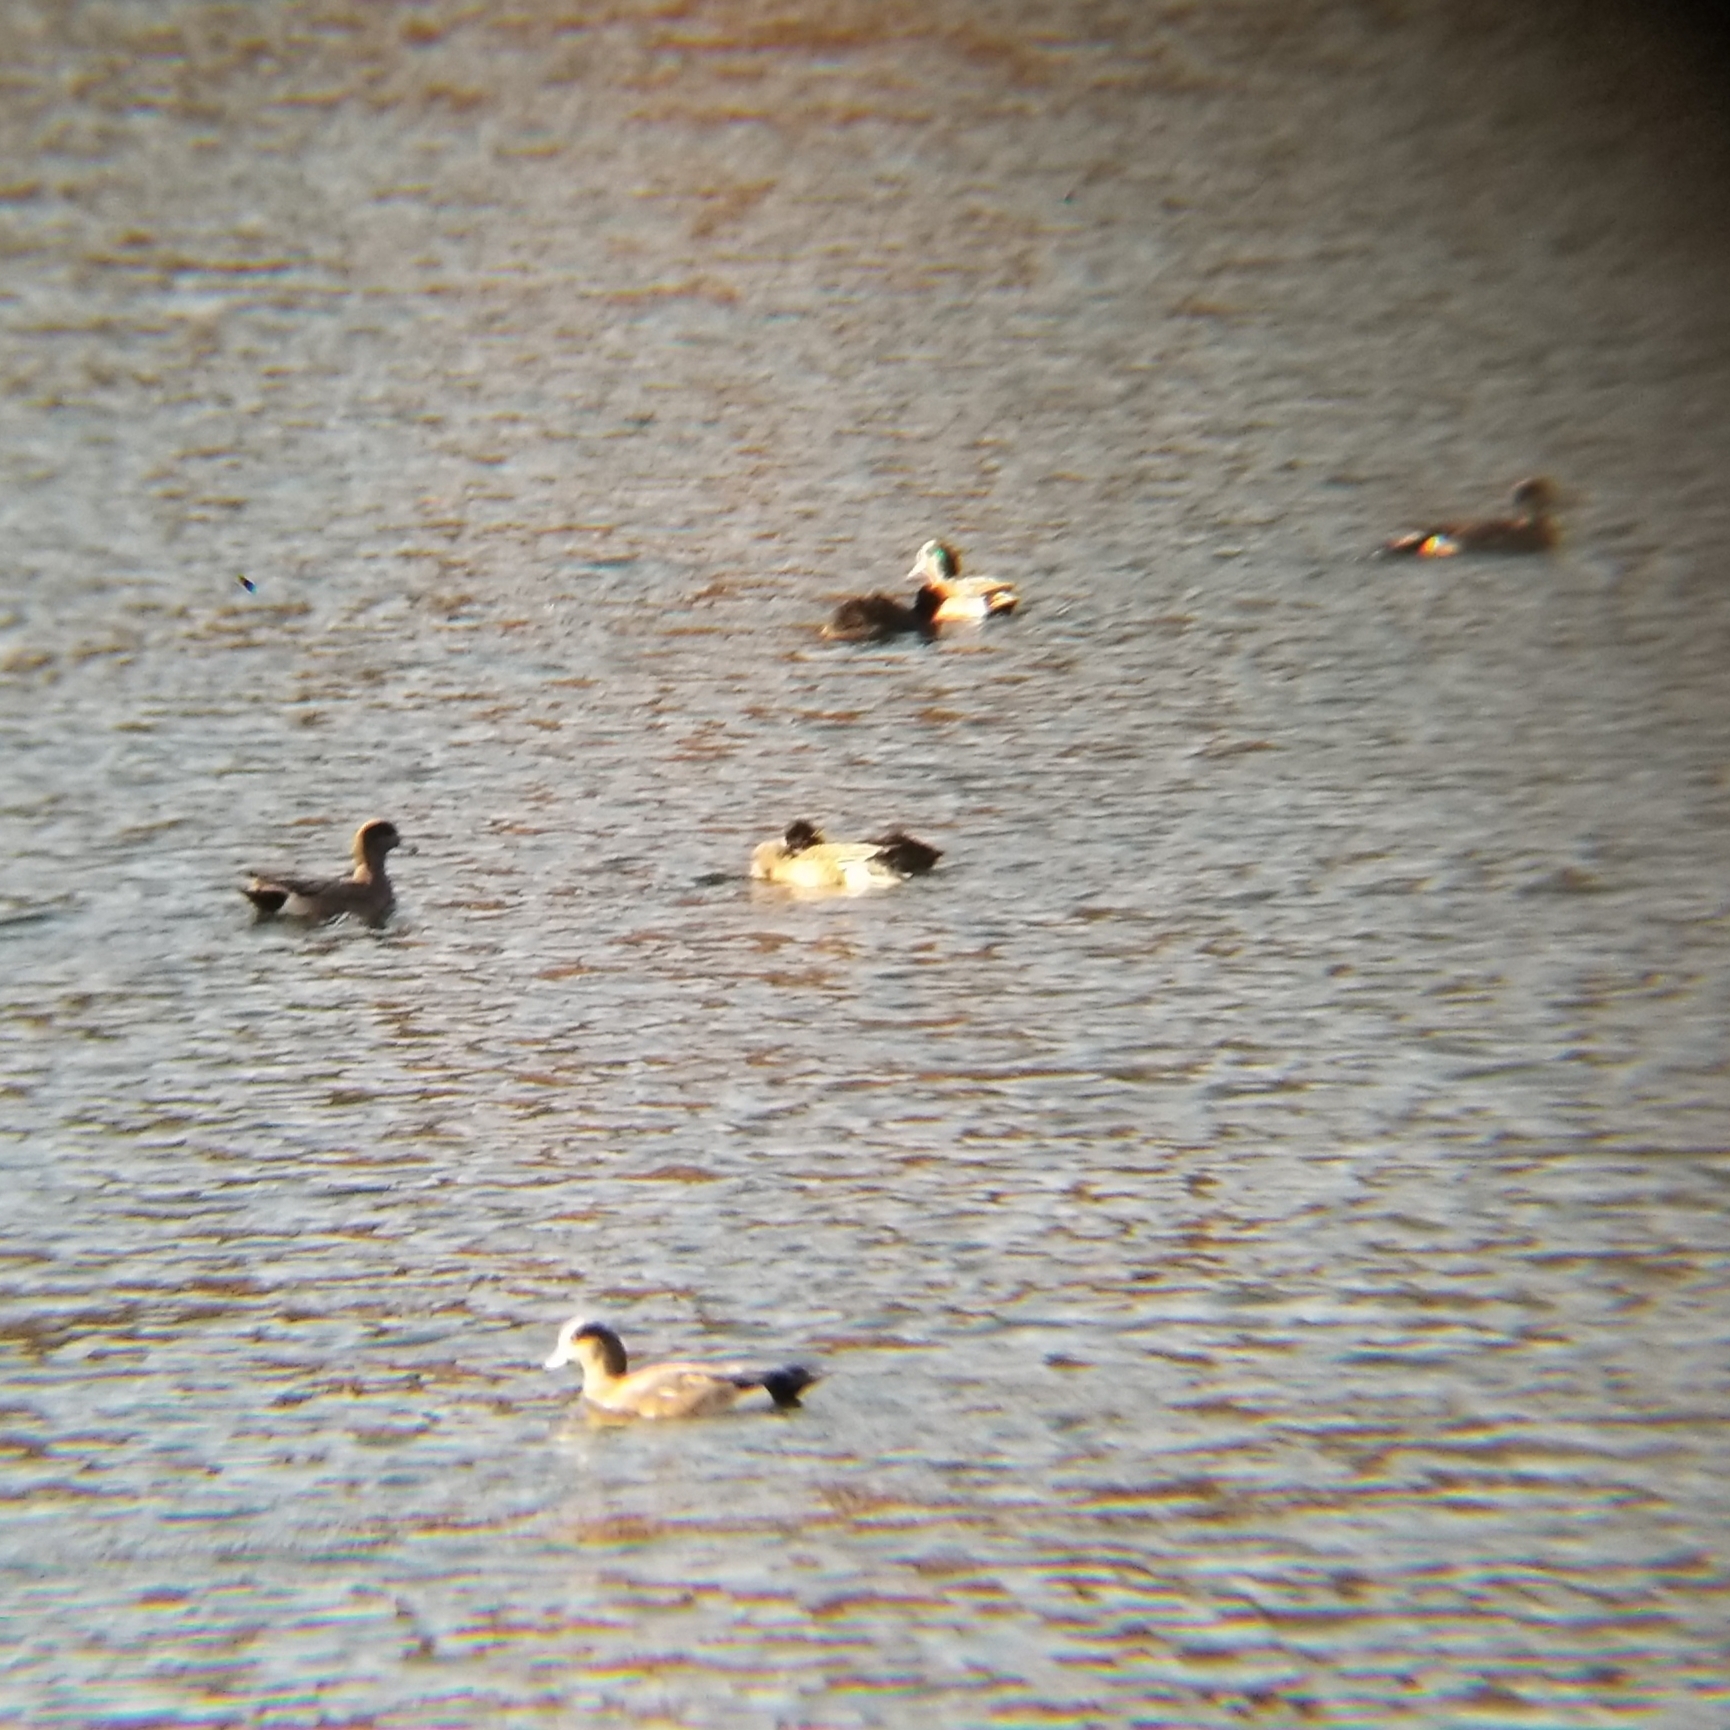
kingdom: Animalia
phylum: Chordata
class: Aves
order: Anseriformes
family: Anatidae
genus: Mareca
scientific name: Mareca americana
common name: American wigeon
